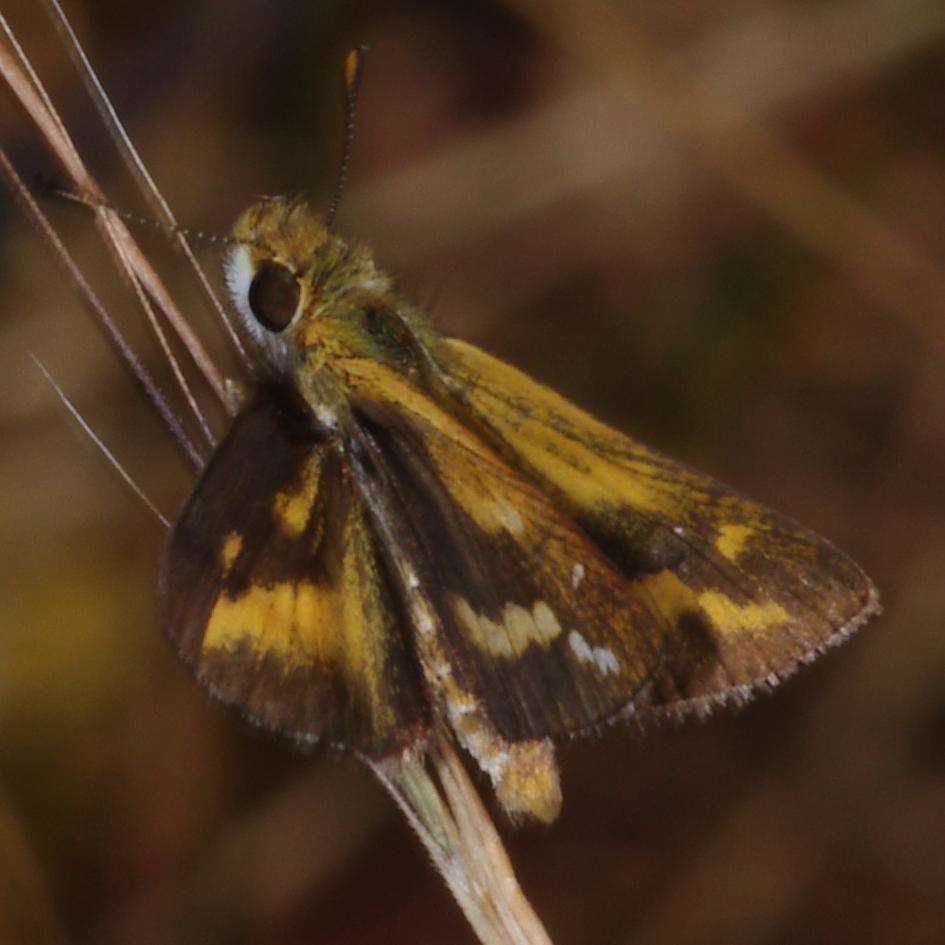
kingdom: Animalia
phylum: Arthropoda
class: Insecta
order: Lepidoptera
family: Hesperiidae
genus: Taractrocera
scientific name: Taractrocera papyria
